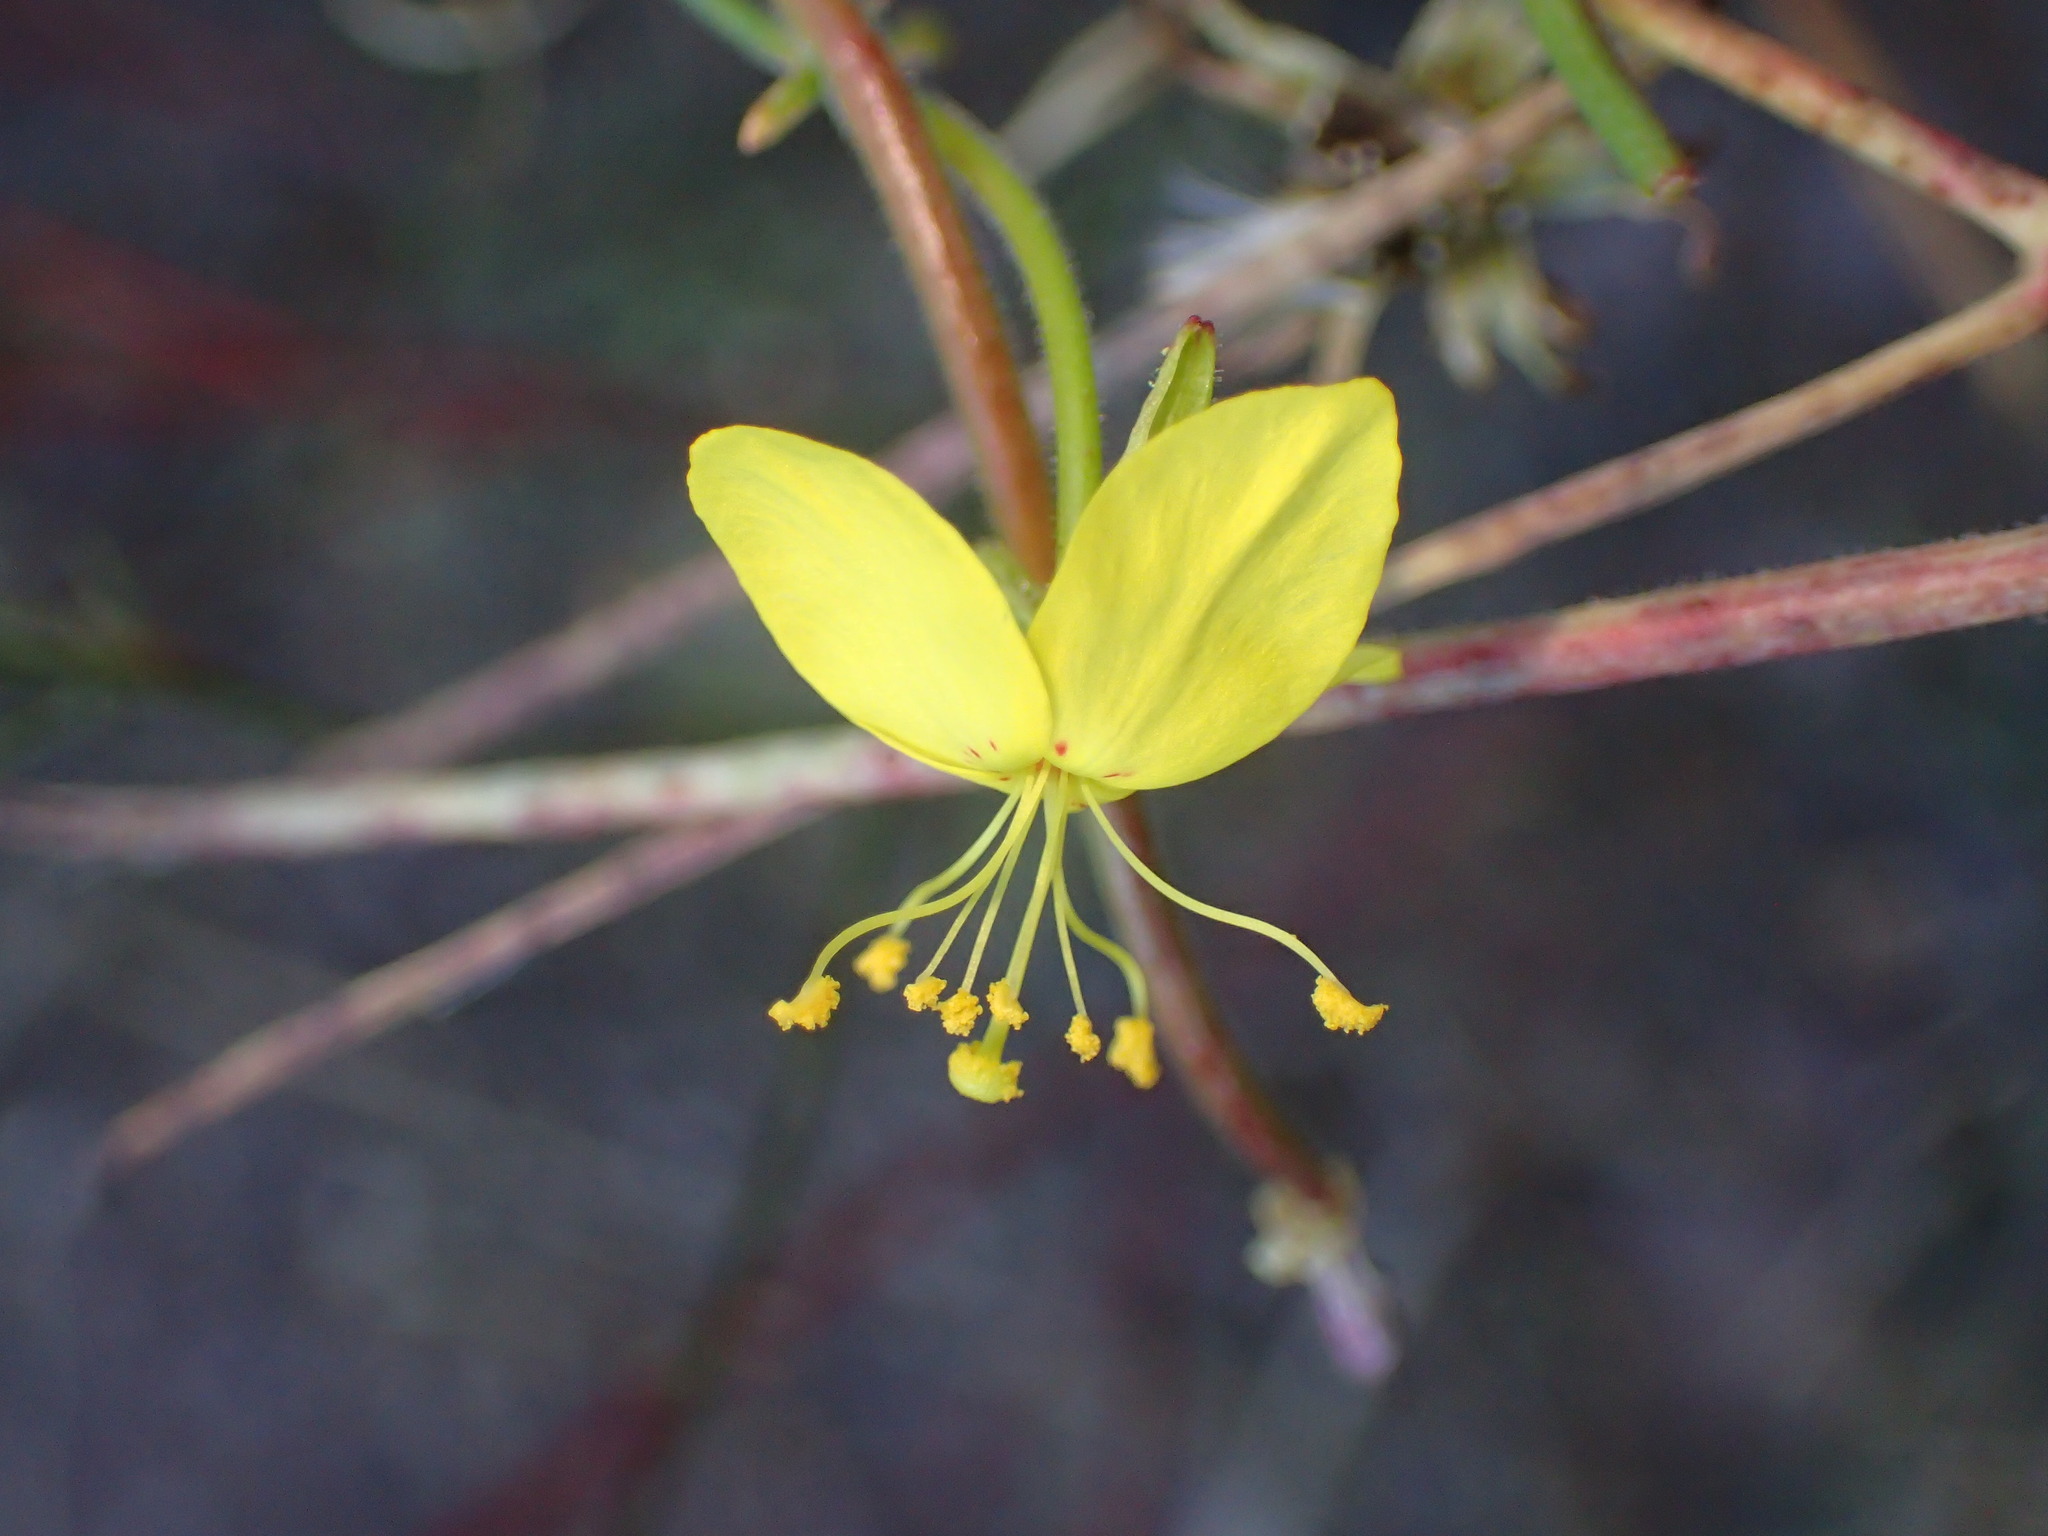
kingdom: Plantae
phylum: Tracheophyta
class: Magnoliopsida
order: Myrtales
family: Onagraceae
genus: Eulobus
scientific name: Eulobus californicus
